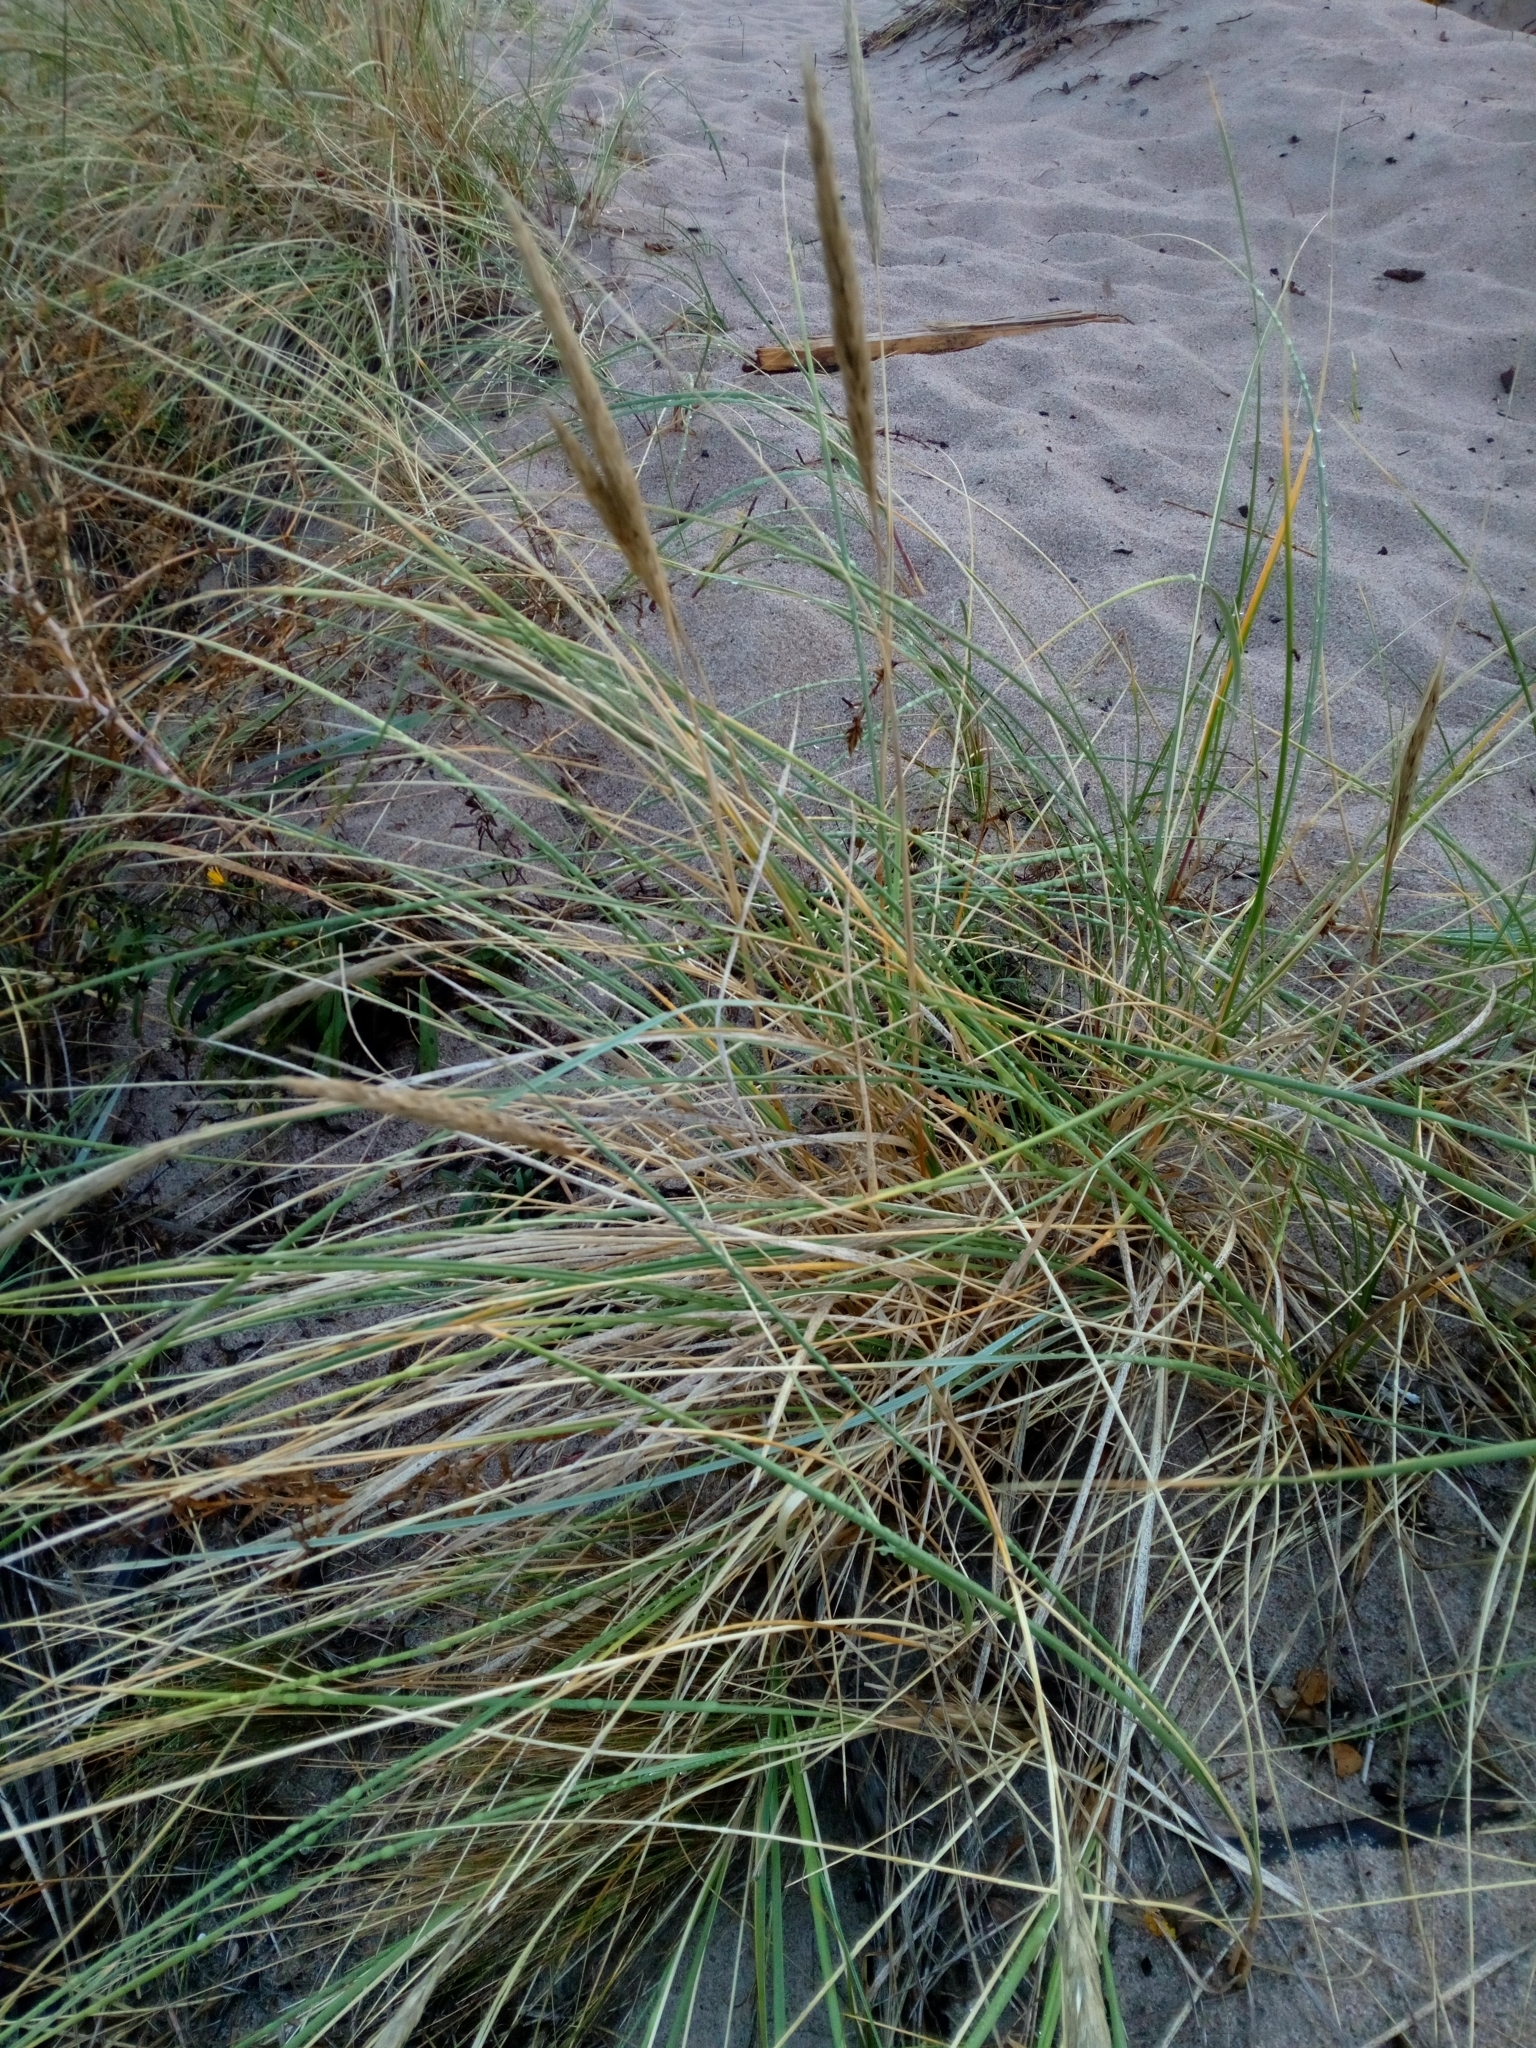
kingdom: Plantae
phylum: Tracheophyta
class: Liliopsida
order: Poales
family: Poaceae
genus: Calamagrostis
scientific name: Calamagrostis arenaria
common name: European beachgrass
